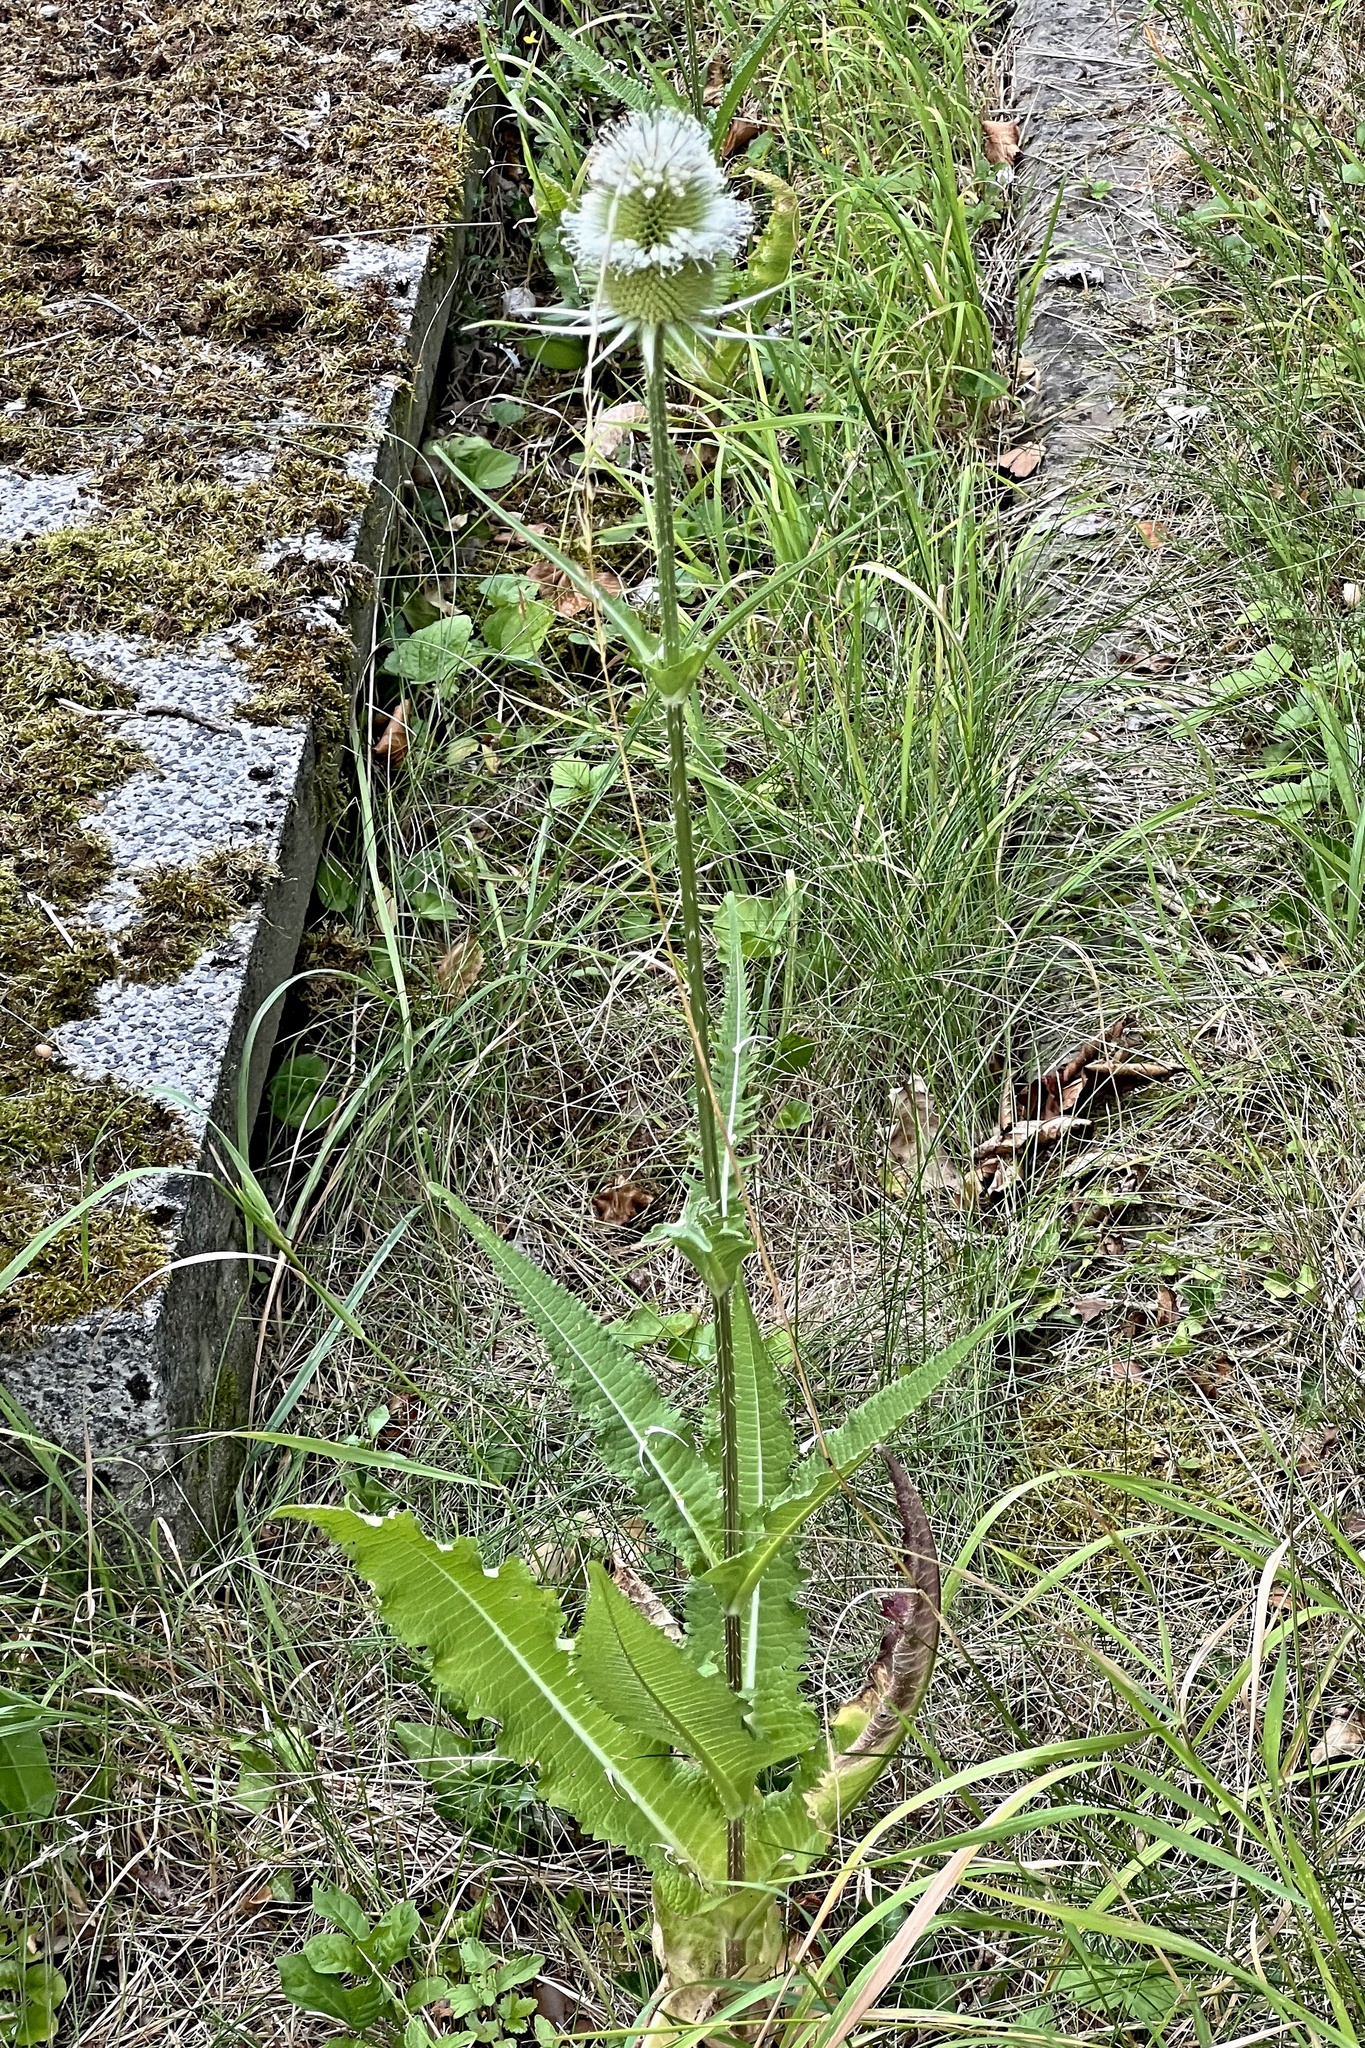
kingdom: Plantae
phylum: Tracheophyta
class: Magnoliopsida
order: Dipsacales
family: Caprifoliaceae
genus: Dipsacus
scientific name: Dipsacus laciniatus
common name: Cut-leaved teasel
